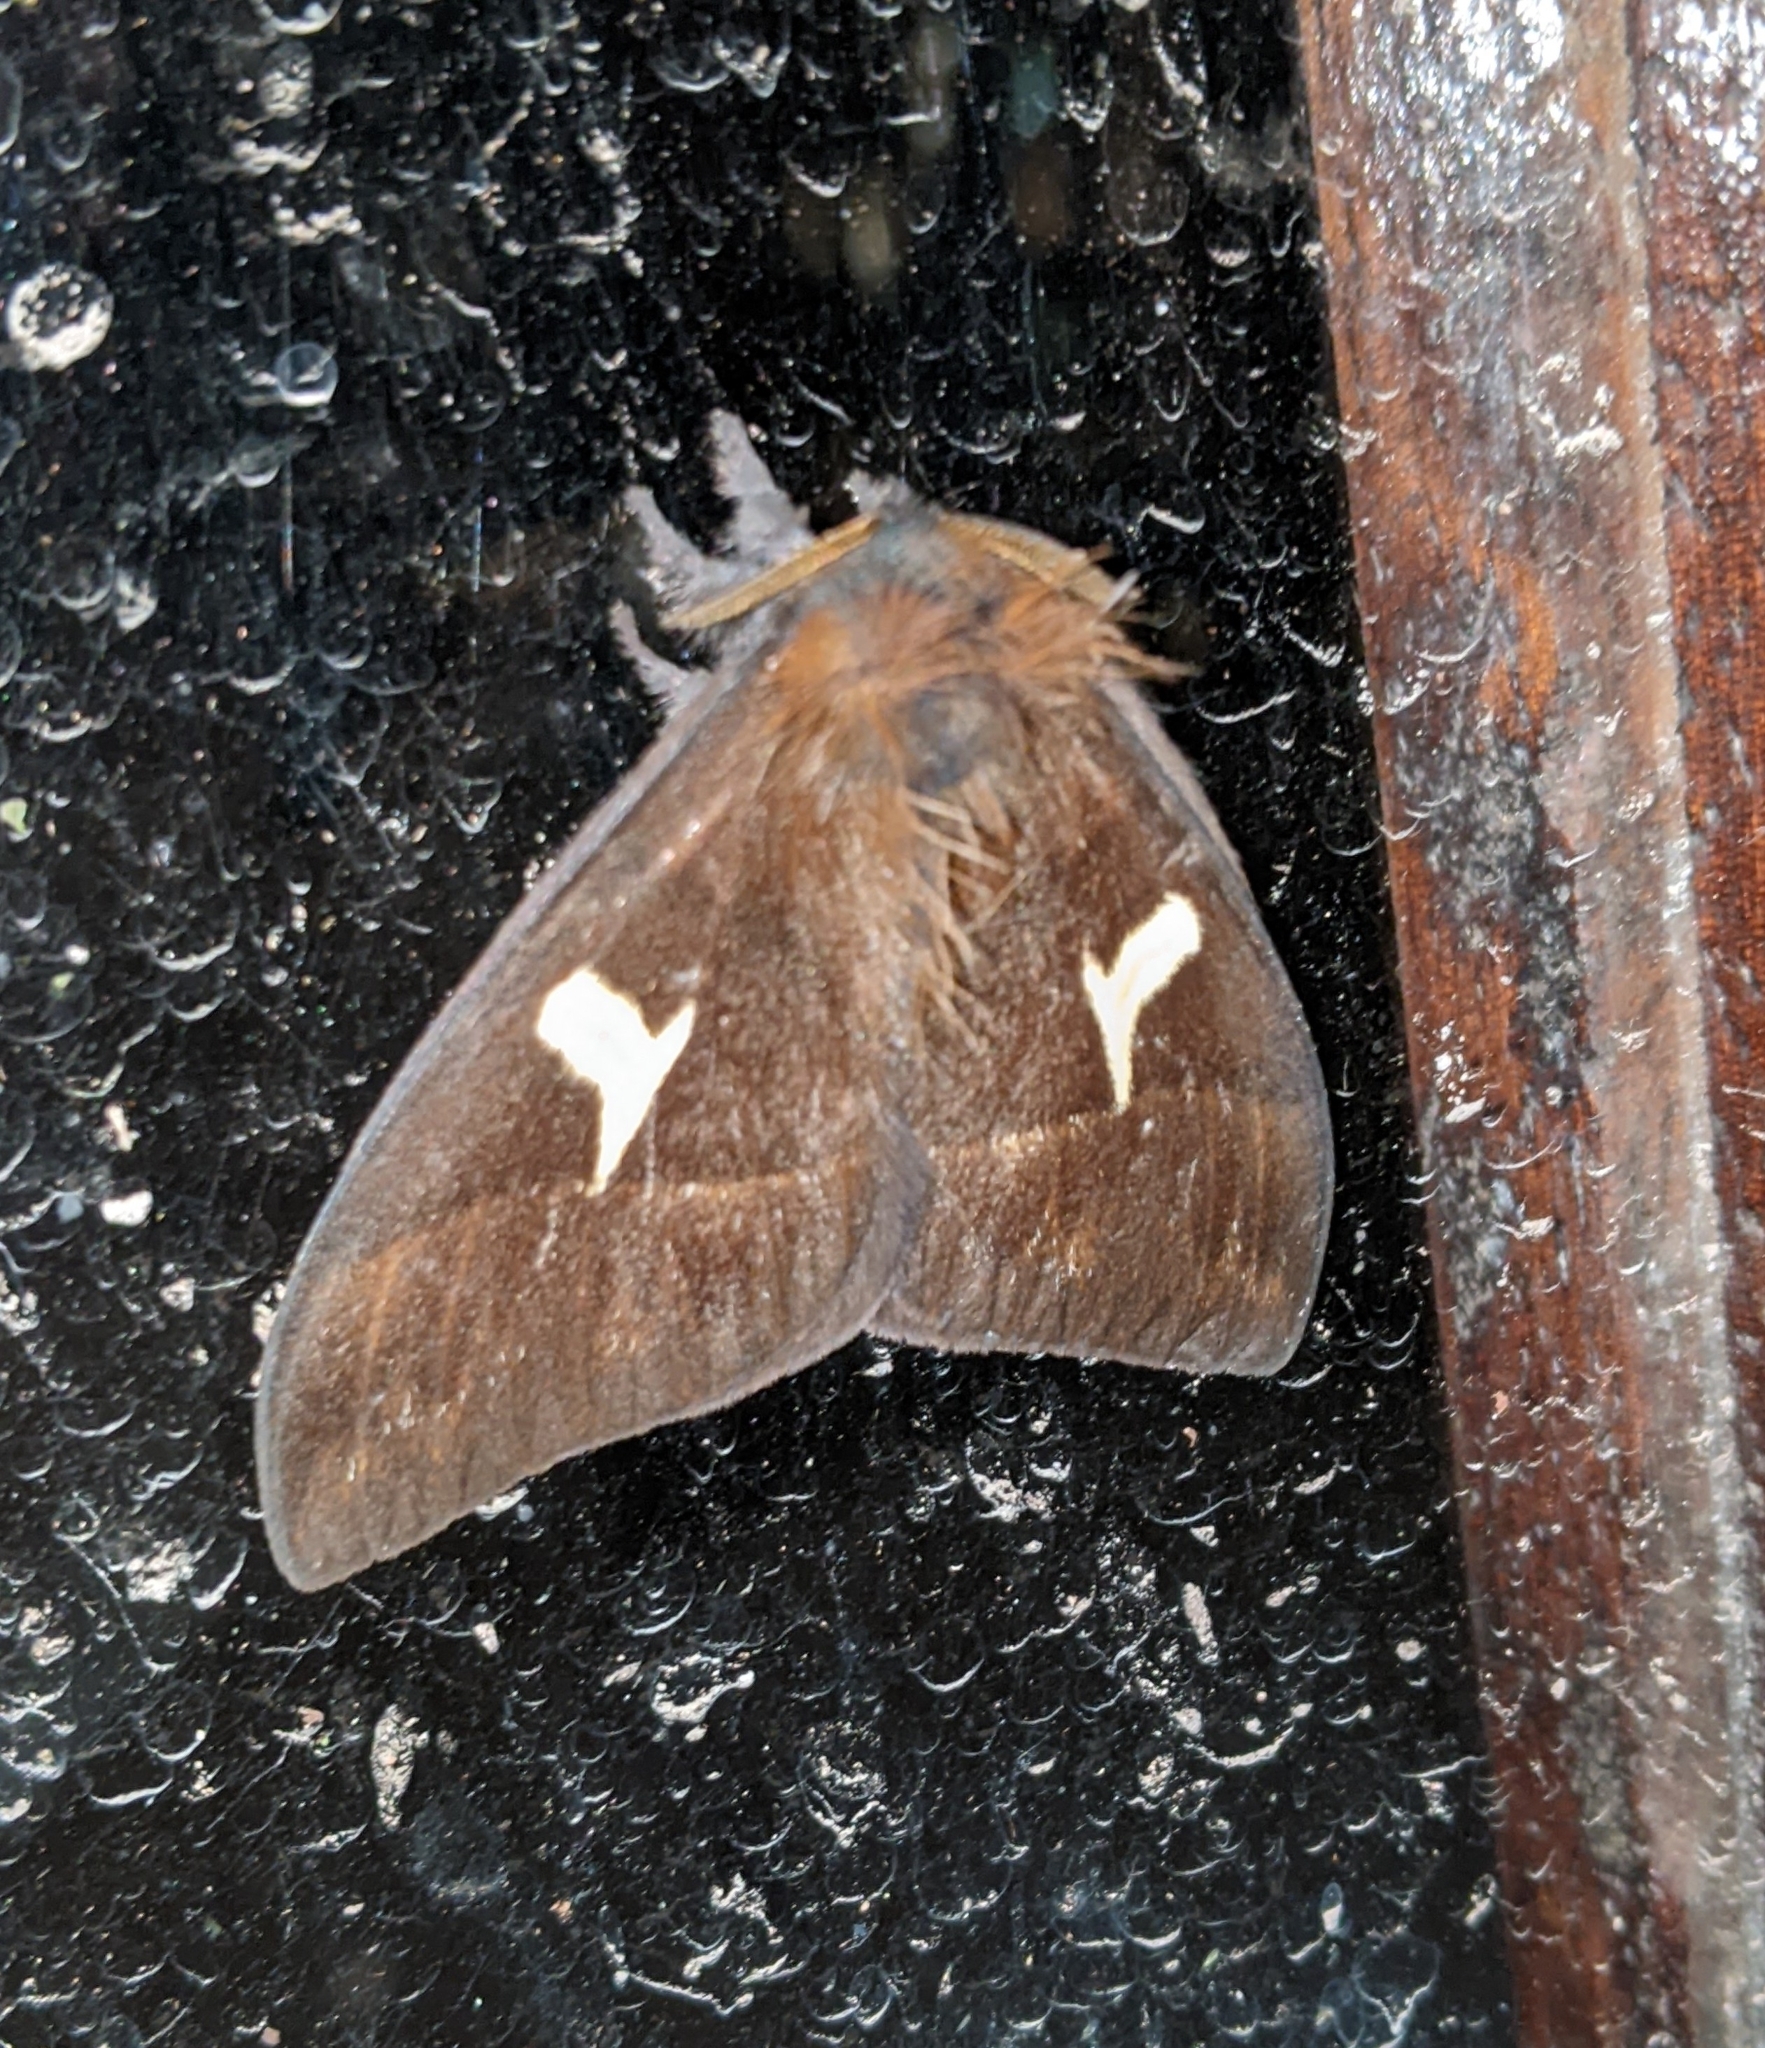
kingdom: Animalia
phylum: Arthropoda
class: Insecta
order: Lepidoptera
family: Saturniidae
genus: Dirphia
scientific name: Dirphia proserpina
